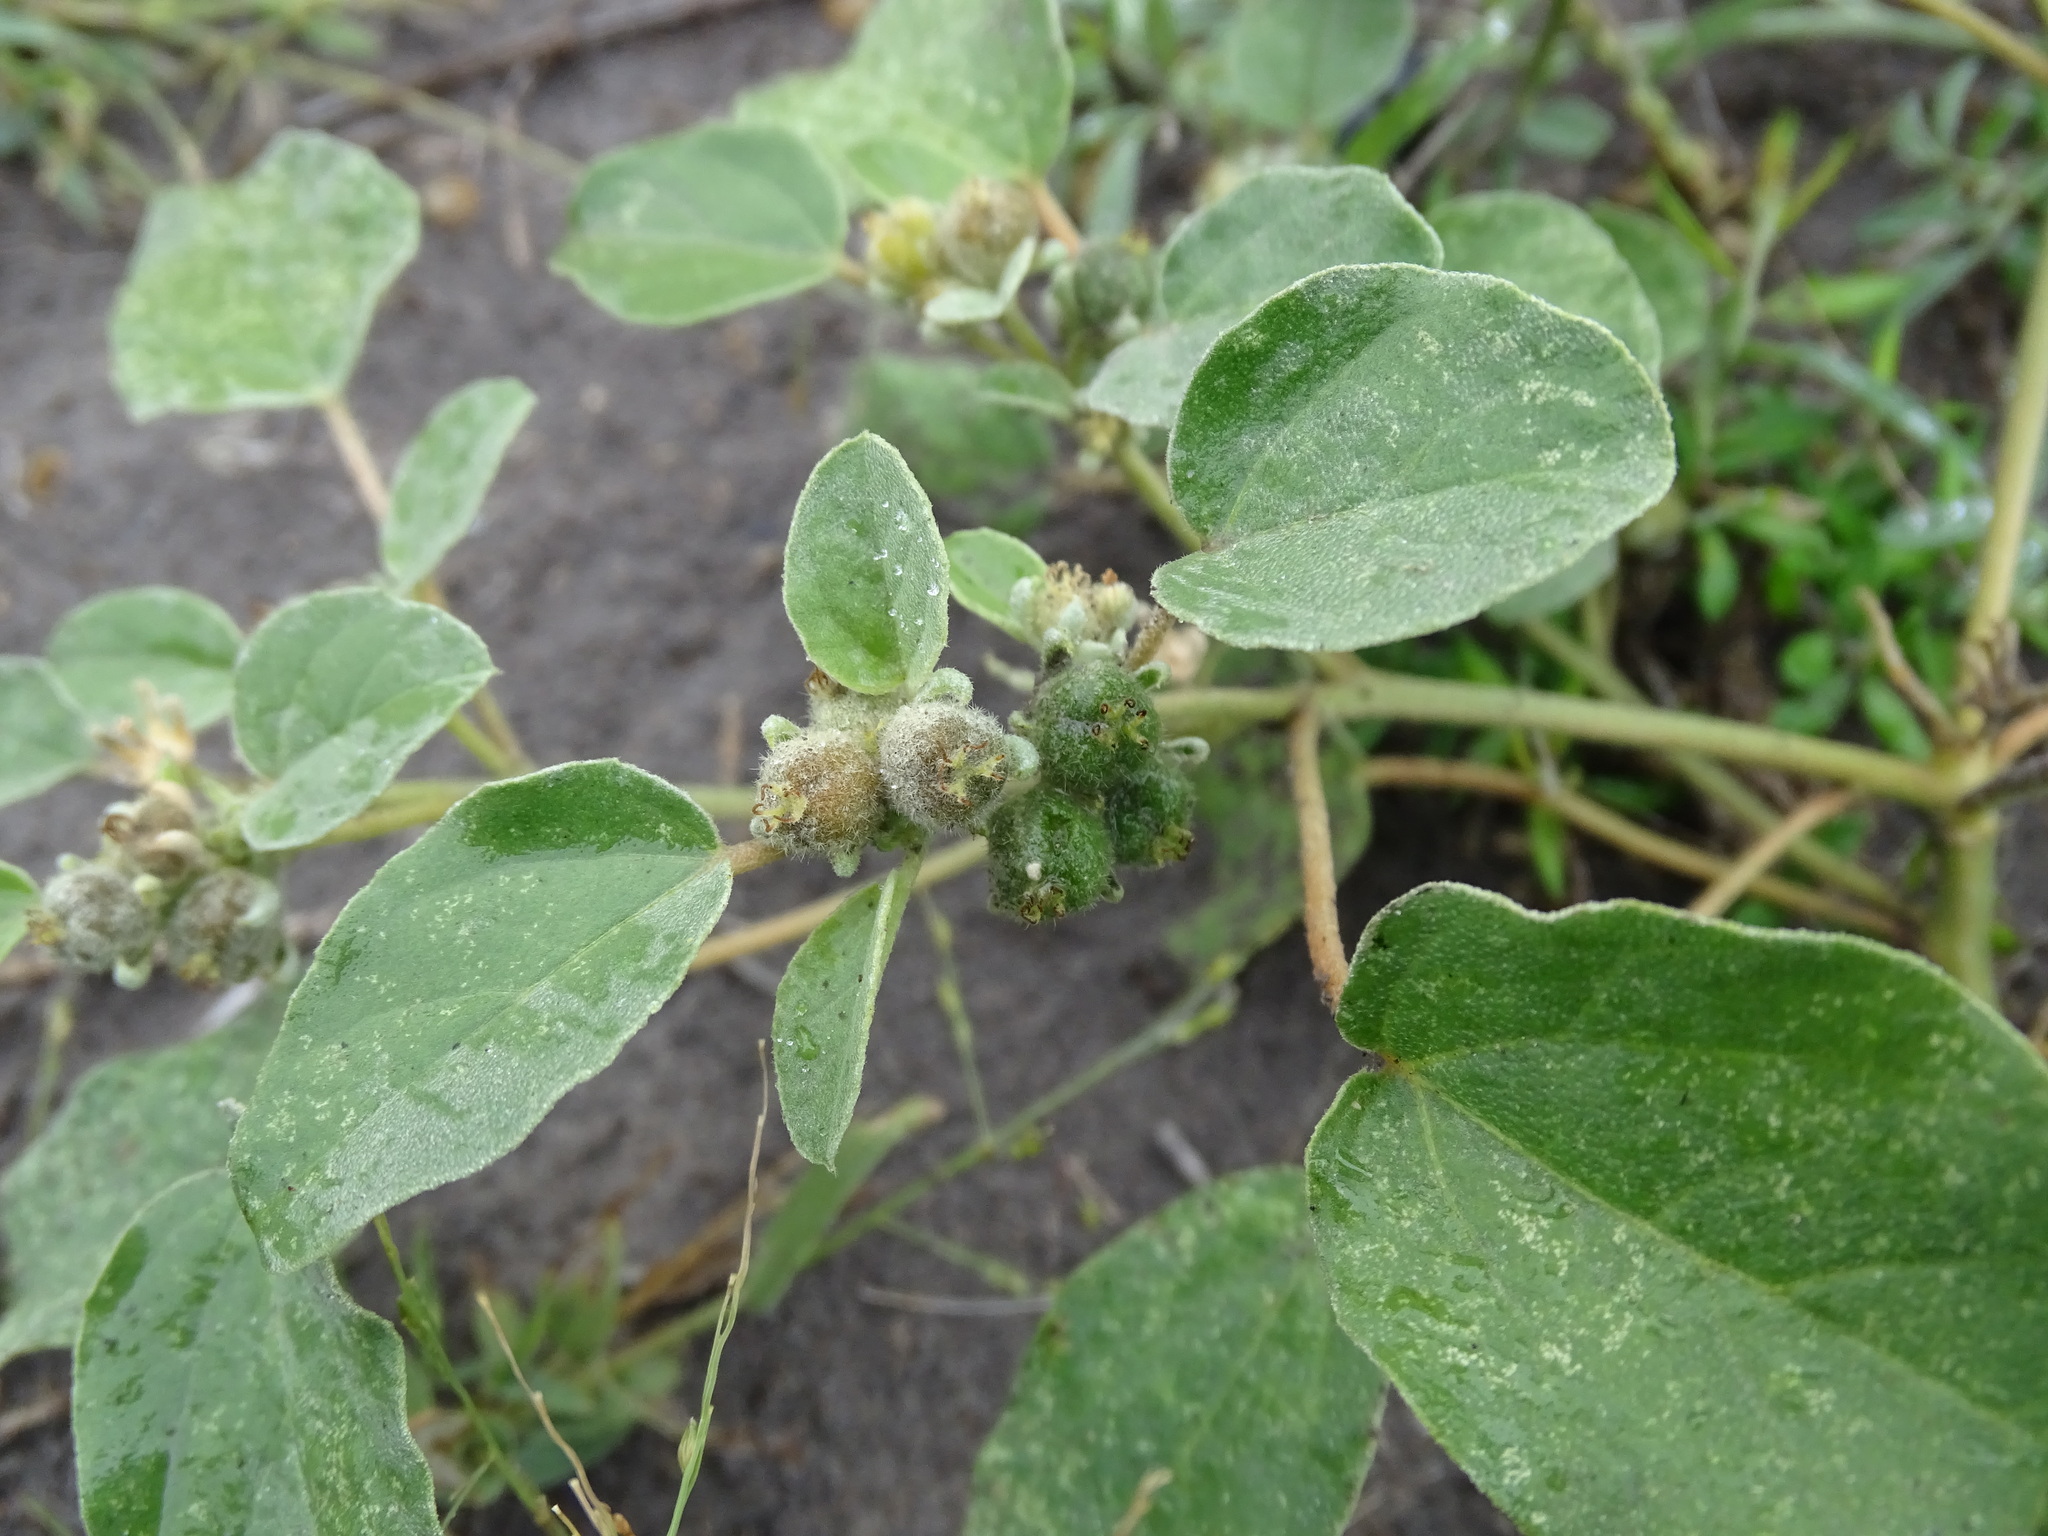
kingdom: Plantae
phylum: Tracheophyta
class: Magnoliopsida
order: Malpighiales
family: Euphorbiaceae
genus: Croton
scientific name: Croton lindheimerianus
